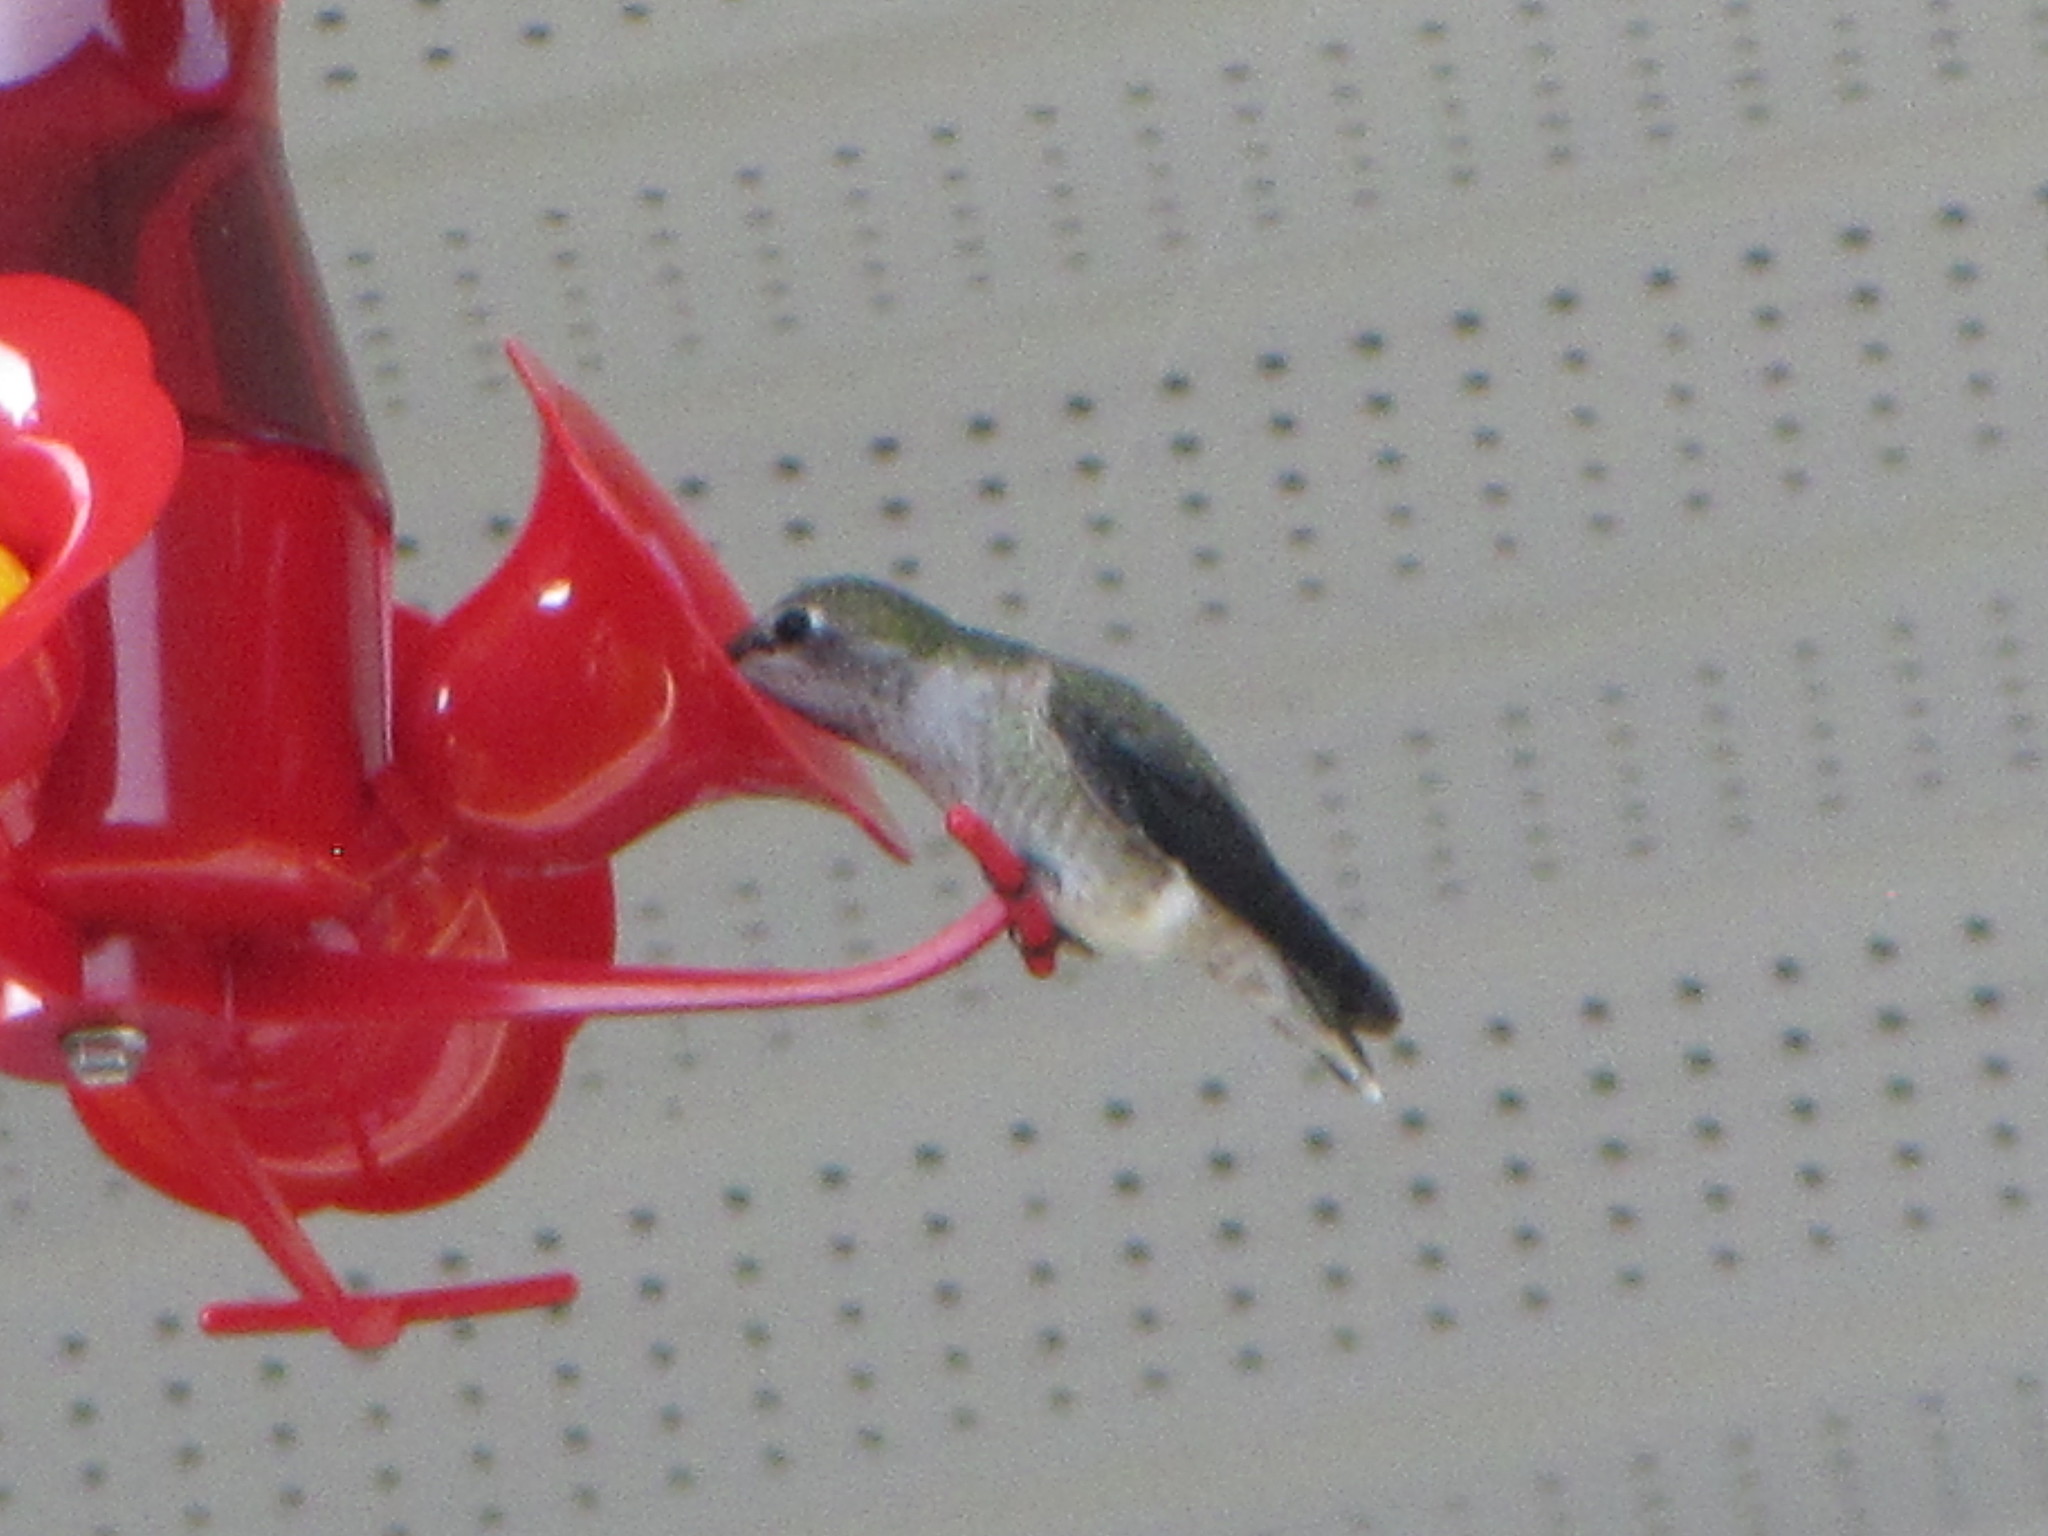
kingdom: Animalia
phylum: Chordata
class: Aves
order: Apodiformes
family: Trochilidae
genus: Calypte
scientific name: Calypte anna
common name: Anna's hummingbird
